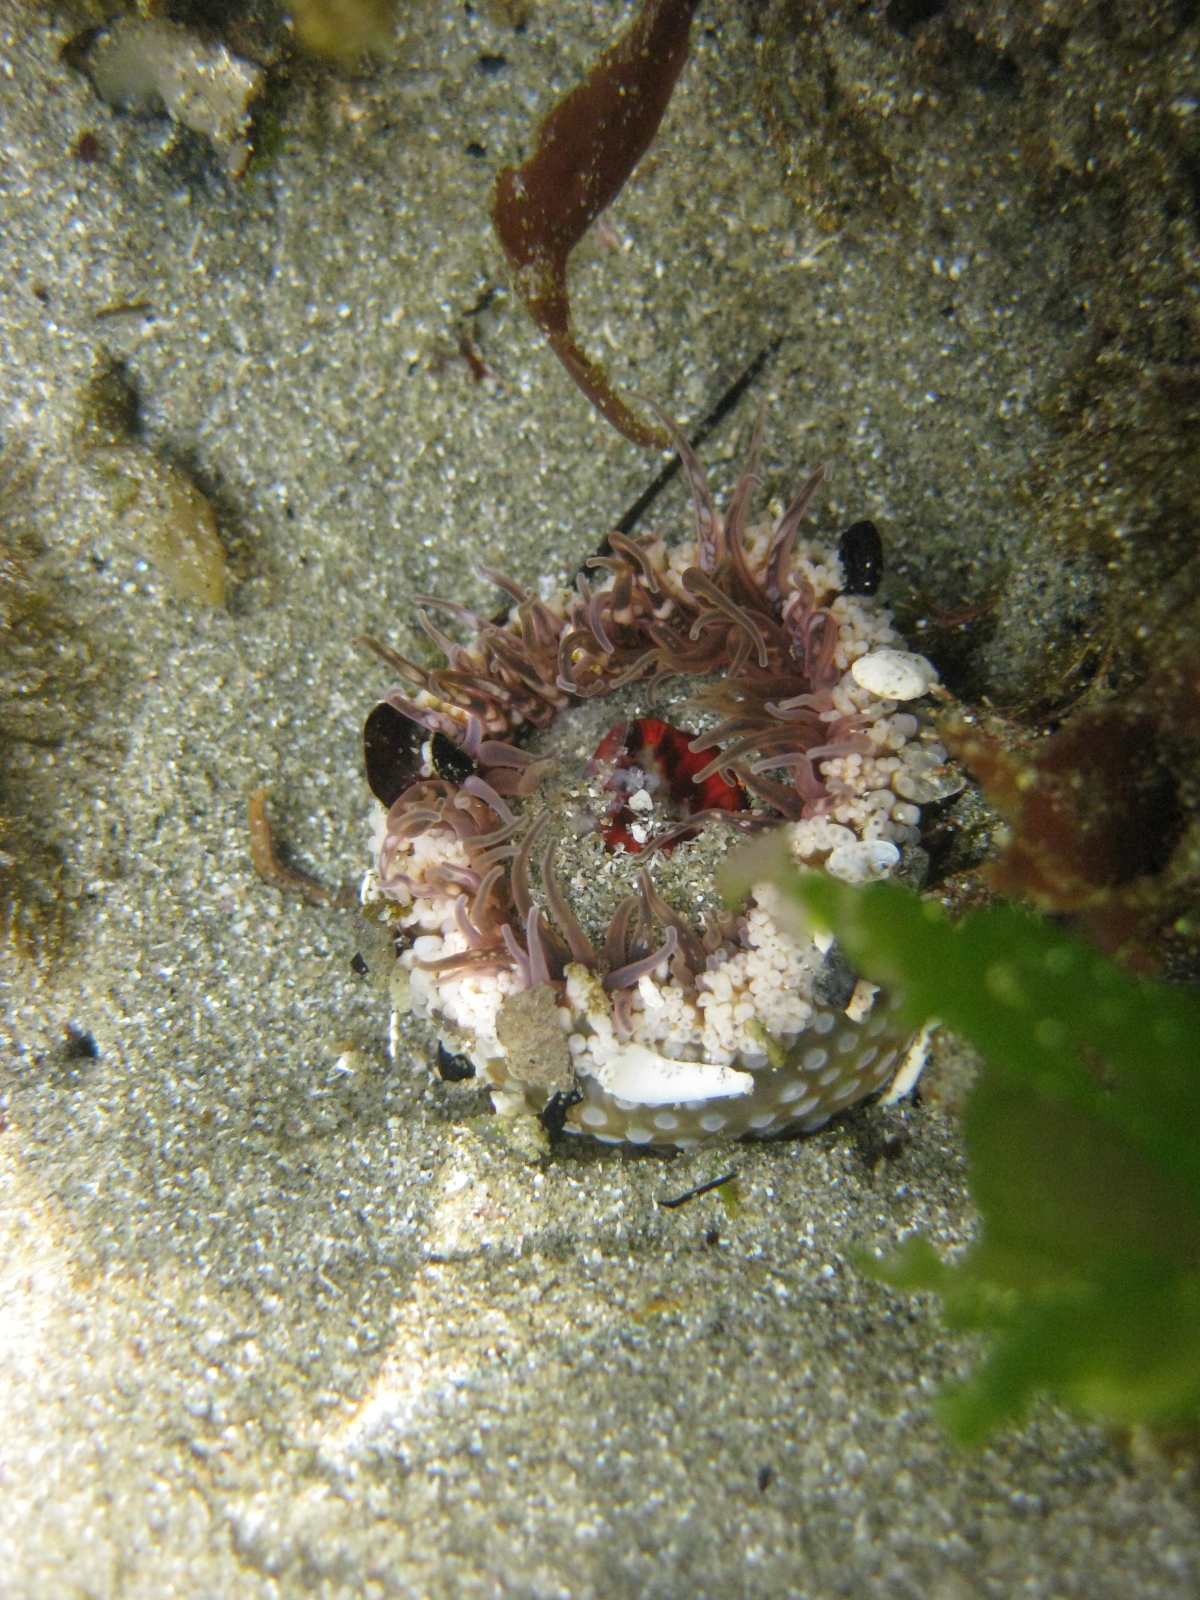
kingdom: Animalia
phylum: Cnidaria
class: Anthozoa
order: Actiniaria
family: Actiniidae
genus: Oulactis
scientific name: Oulactis muscosa
